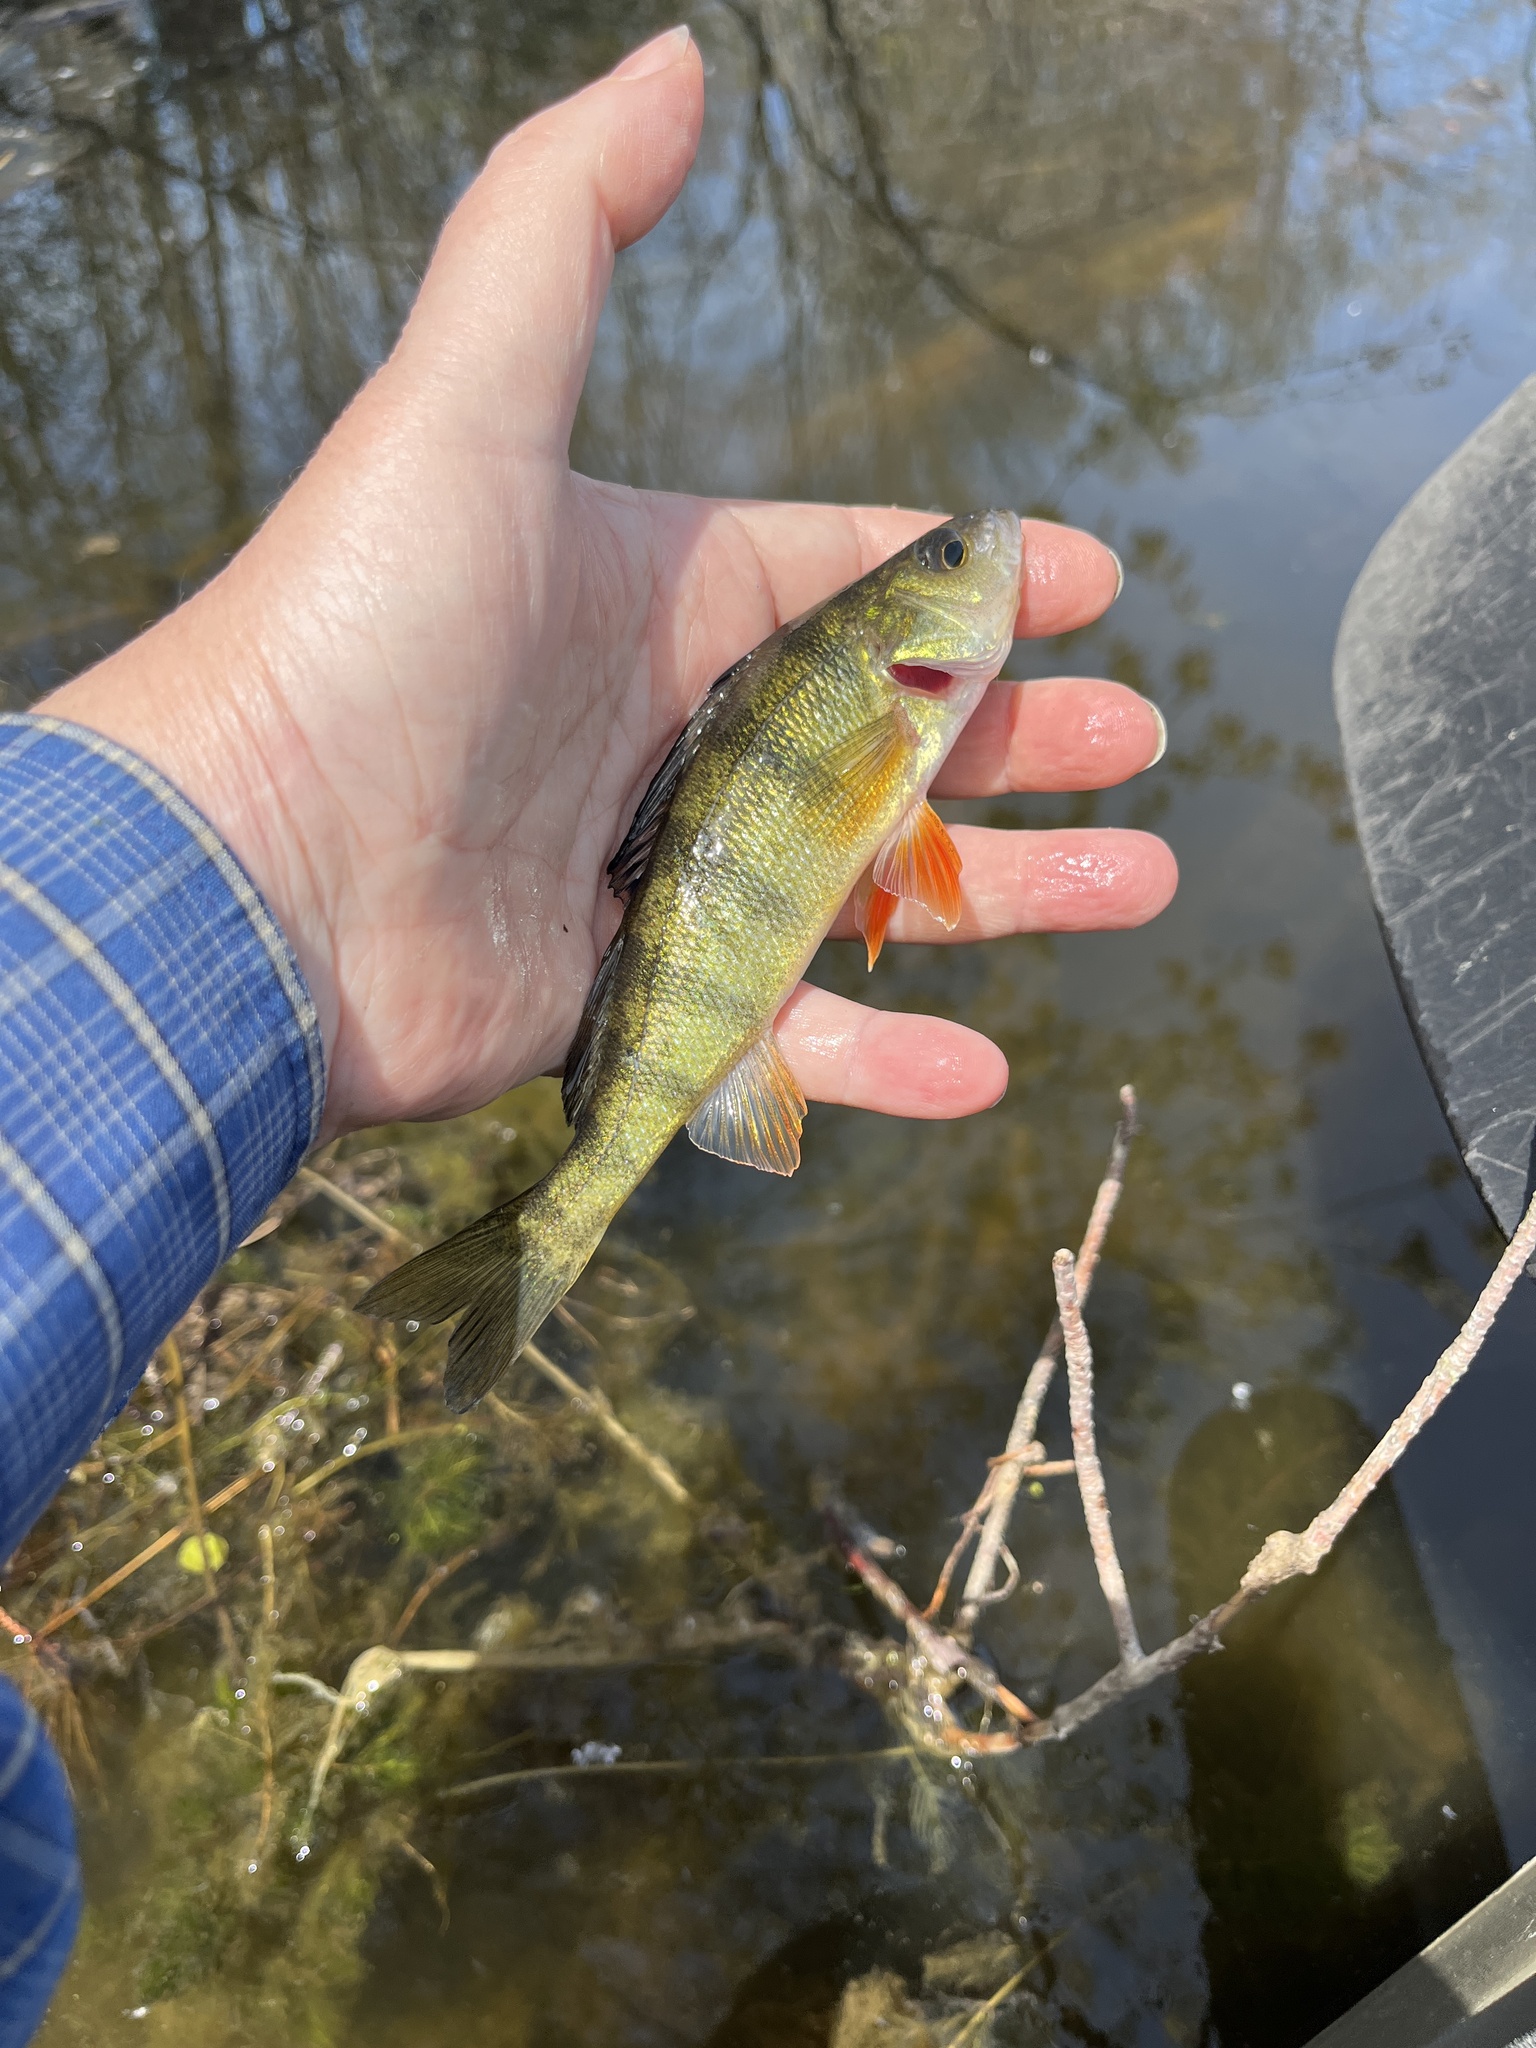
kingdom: Animalia
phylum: Chordata
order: Perciformes
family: Percidae
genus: Perca
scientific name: Perca flavescens
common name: Yellow perch
